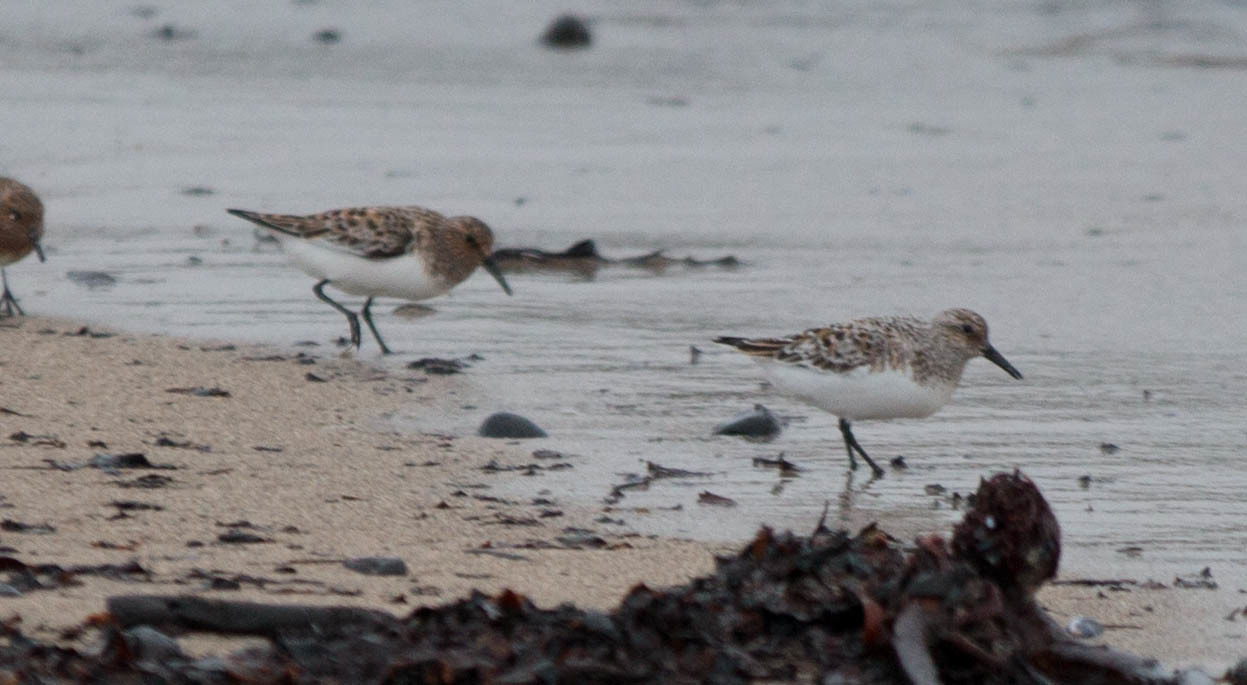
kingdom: Animalia
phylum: Chordata
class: Aves
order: Charadriiformes
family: Scolopacidae
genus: Calidris
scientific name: Calidris alba
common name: Sanderling
